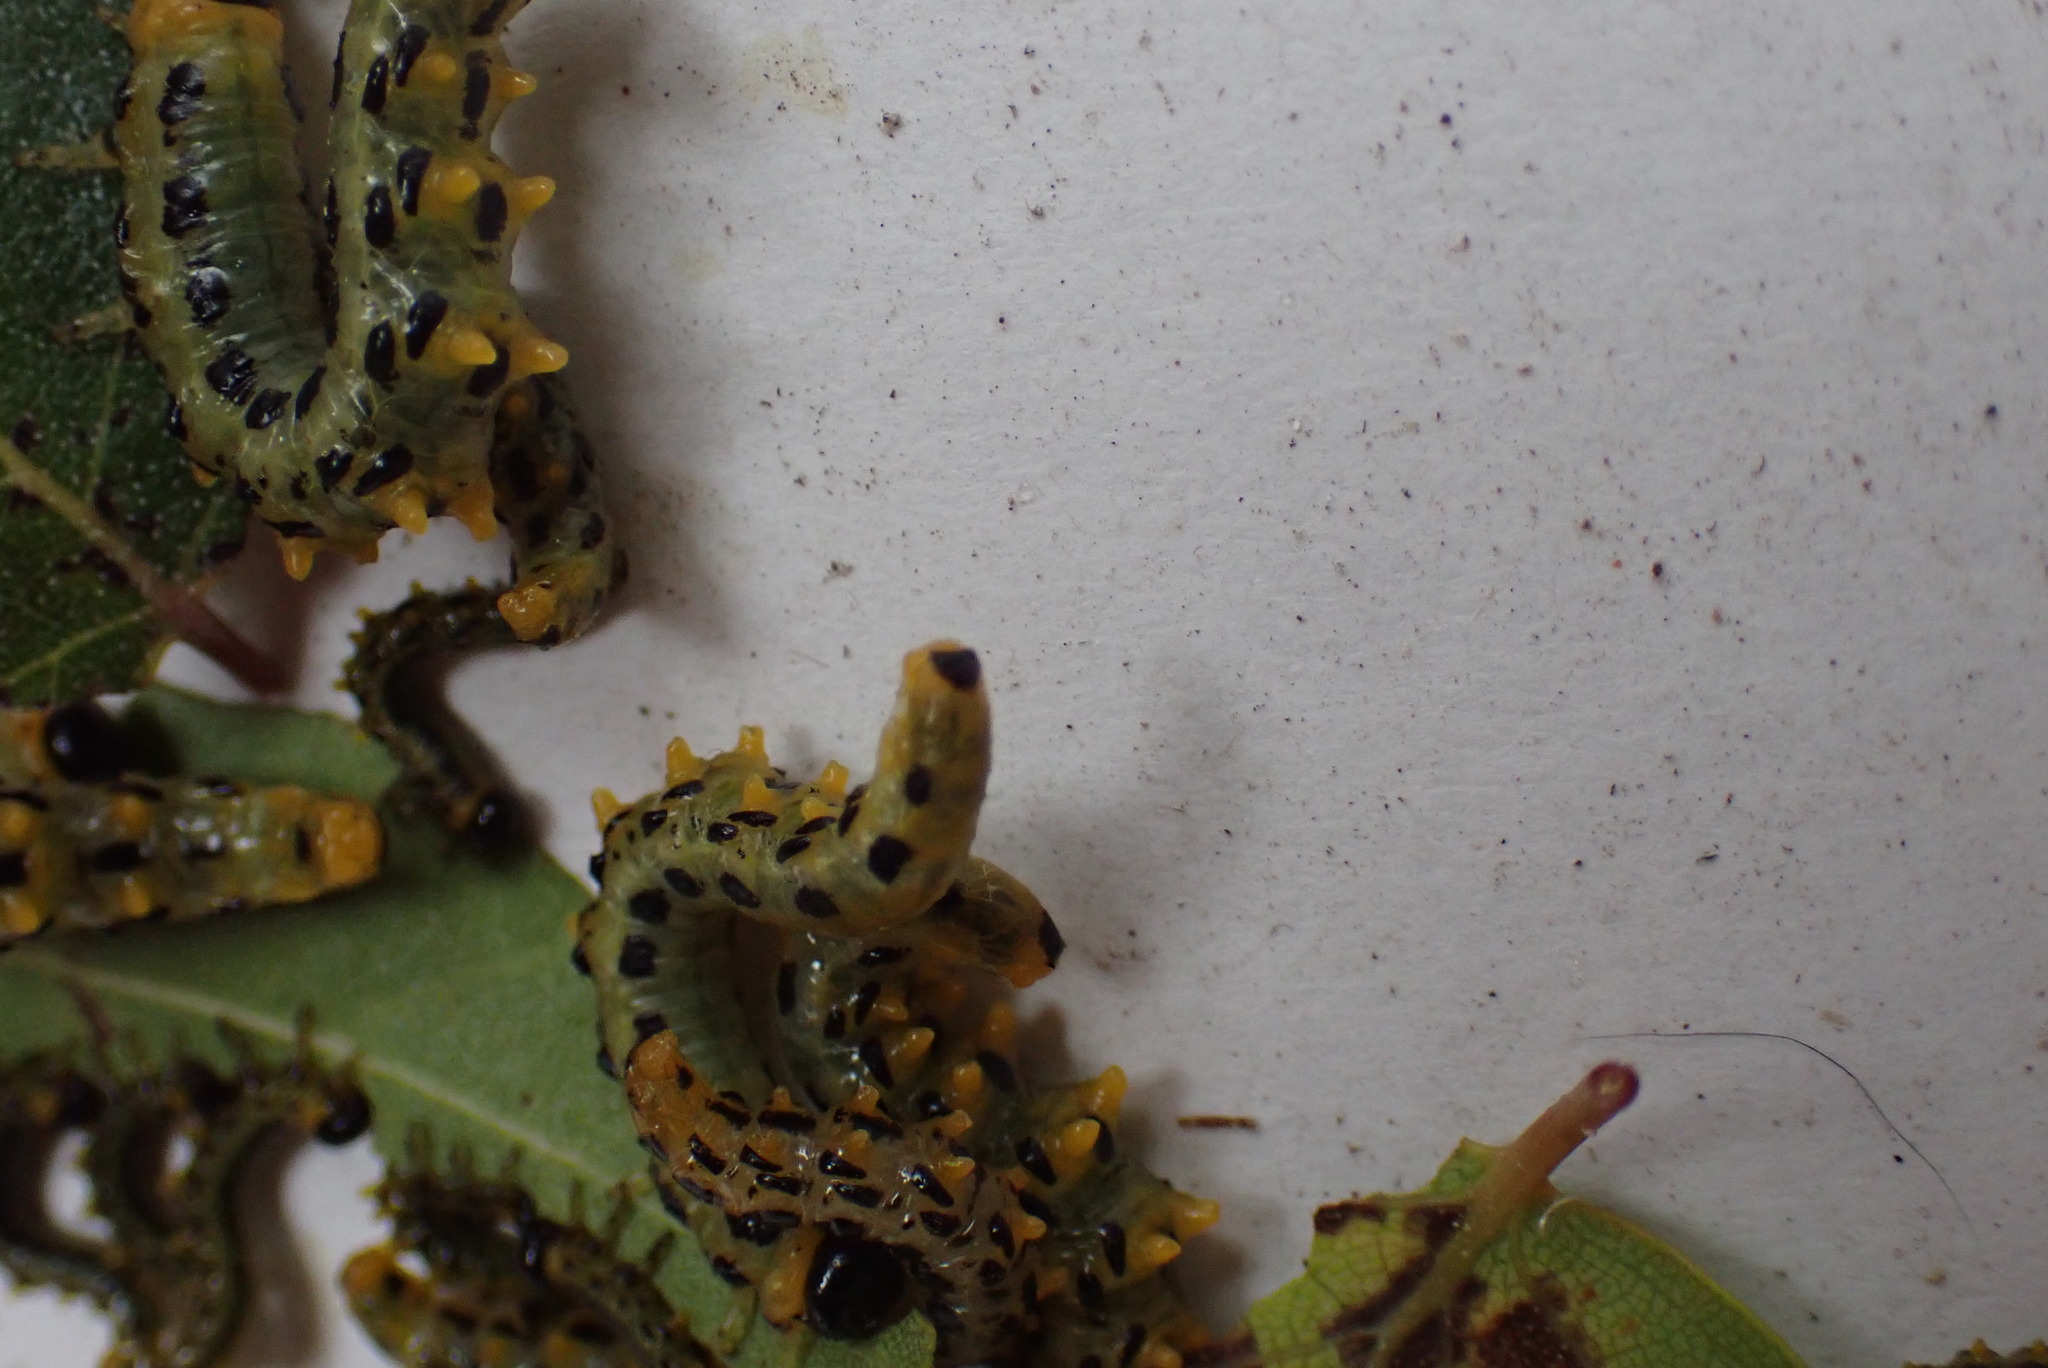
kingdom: Animalia
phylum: Arthropoda
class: Insecta
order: Hymenoptera
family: Tenthredinidae
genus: Craesus
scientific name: Craesus septentrionalis
